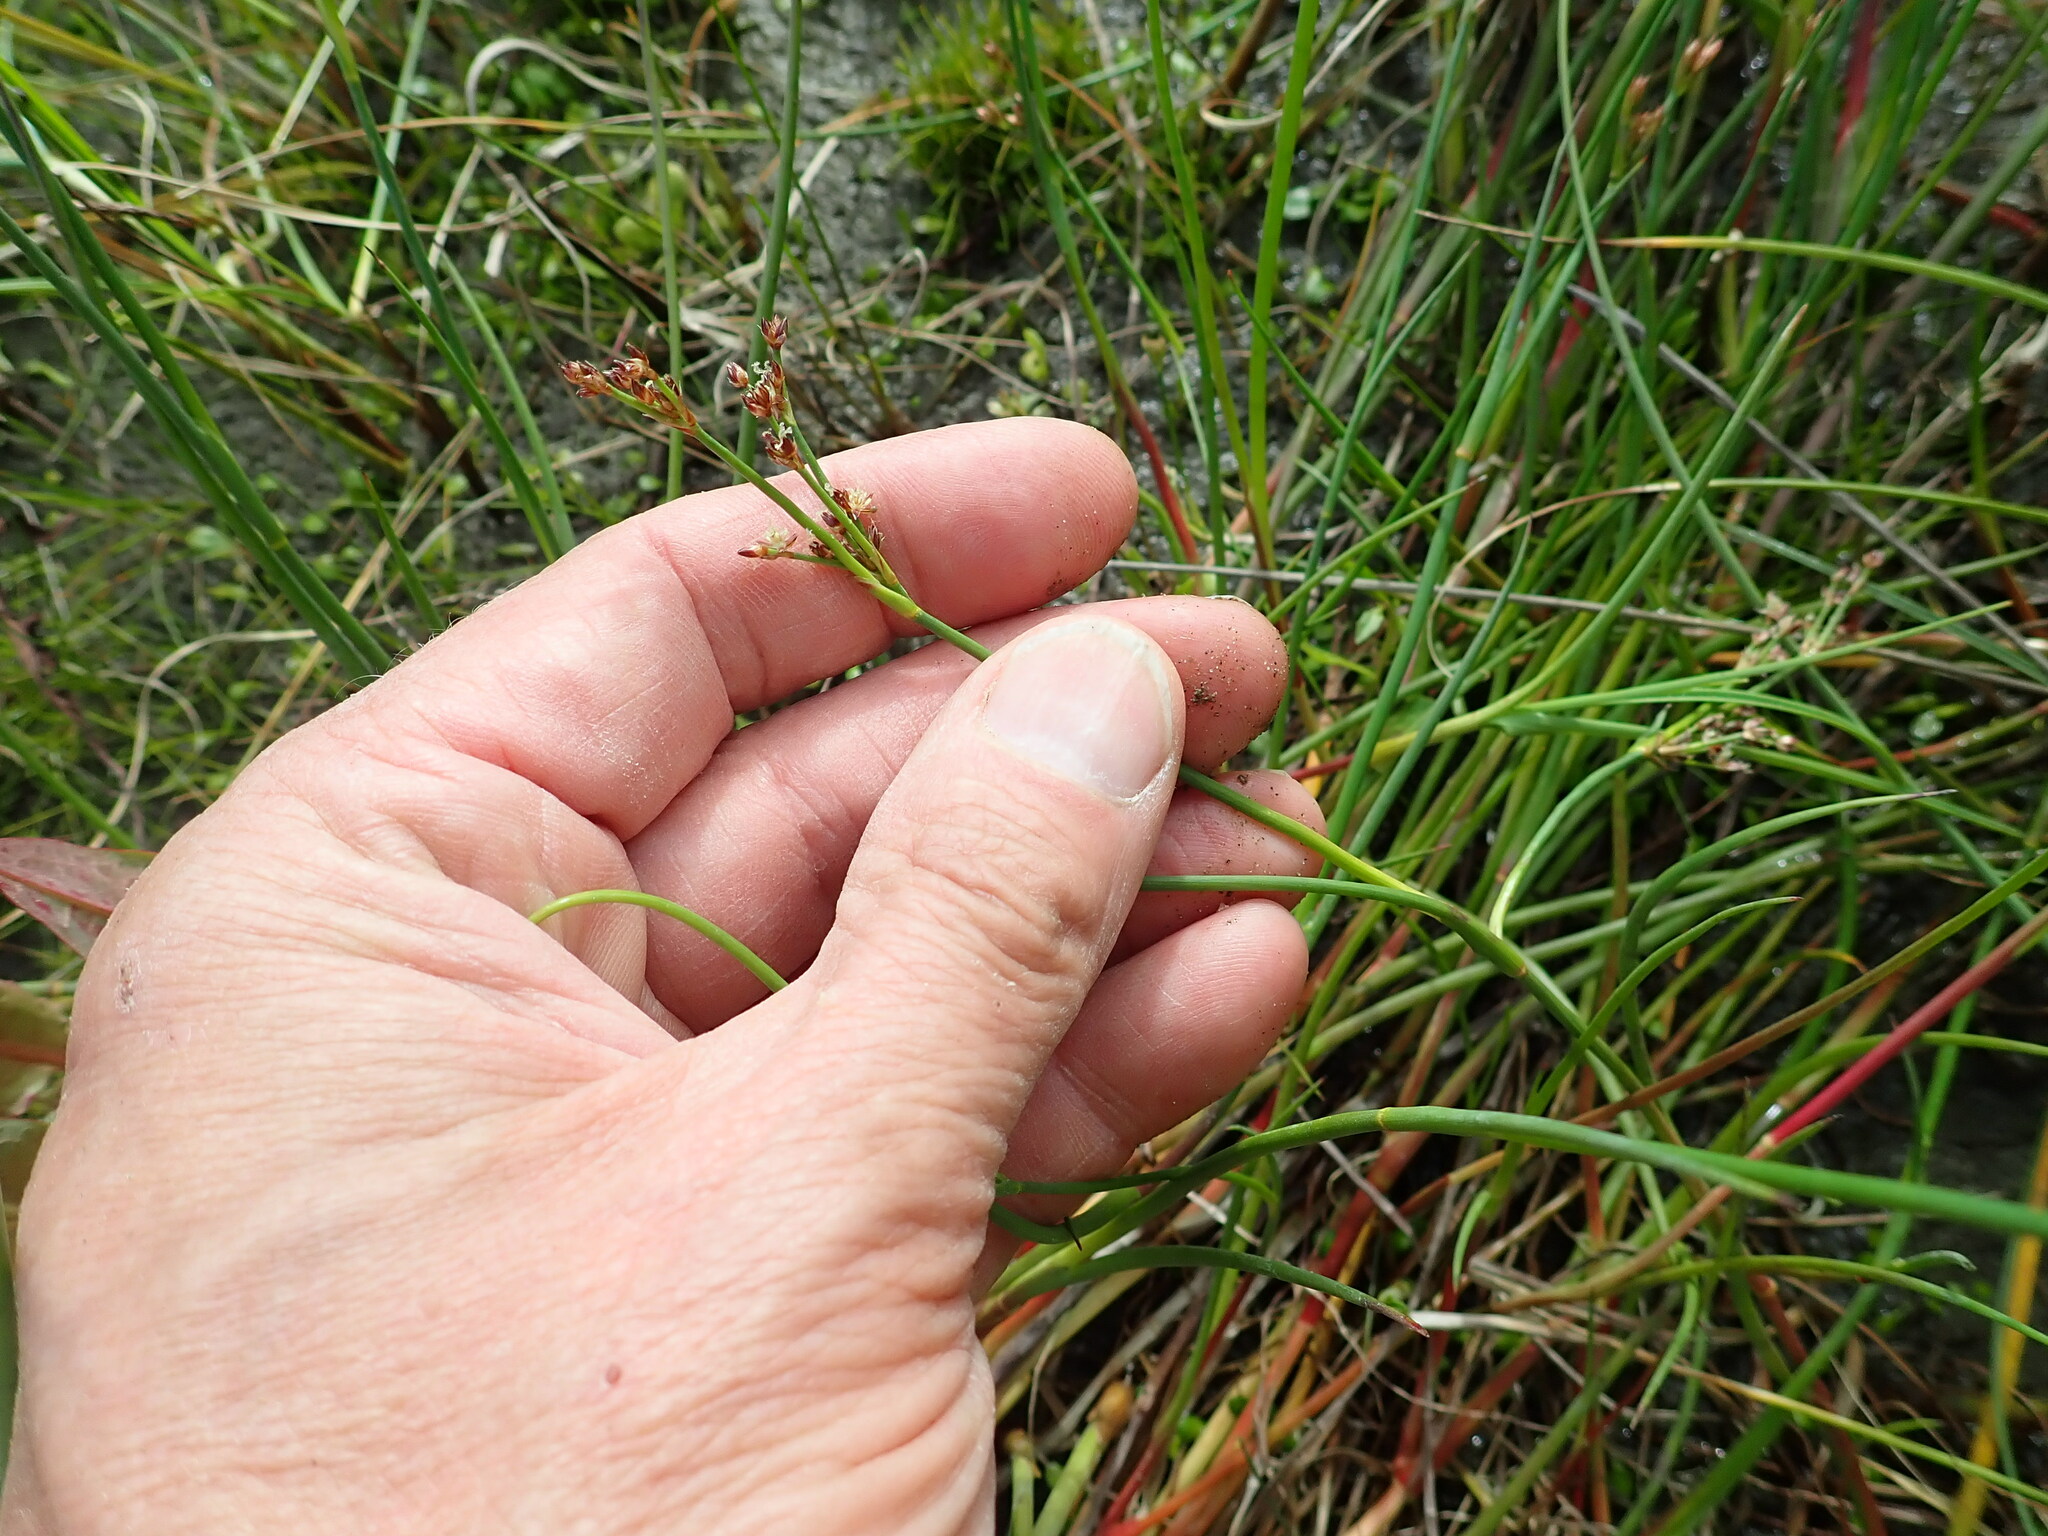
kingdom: Plantae
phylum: Tracheophyta
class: Liliopsida
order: Poales
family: Juncaceae
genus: Juncus
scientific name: Juncus articulatus
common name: Jointed rush
